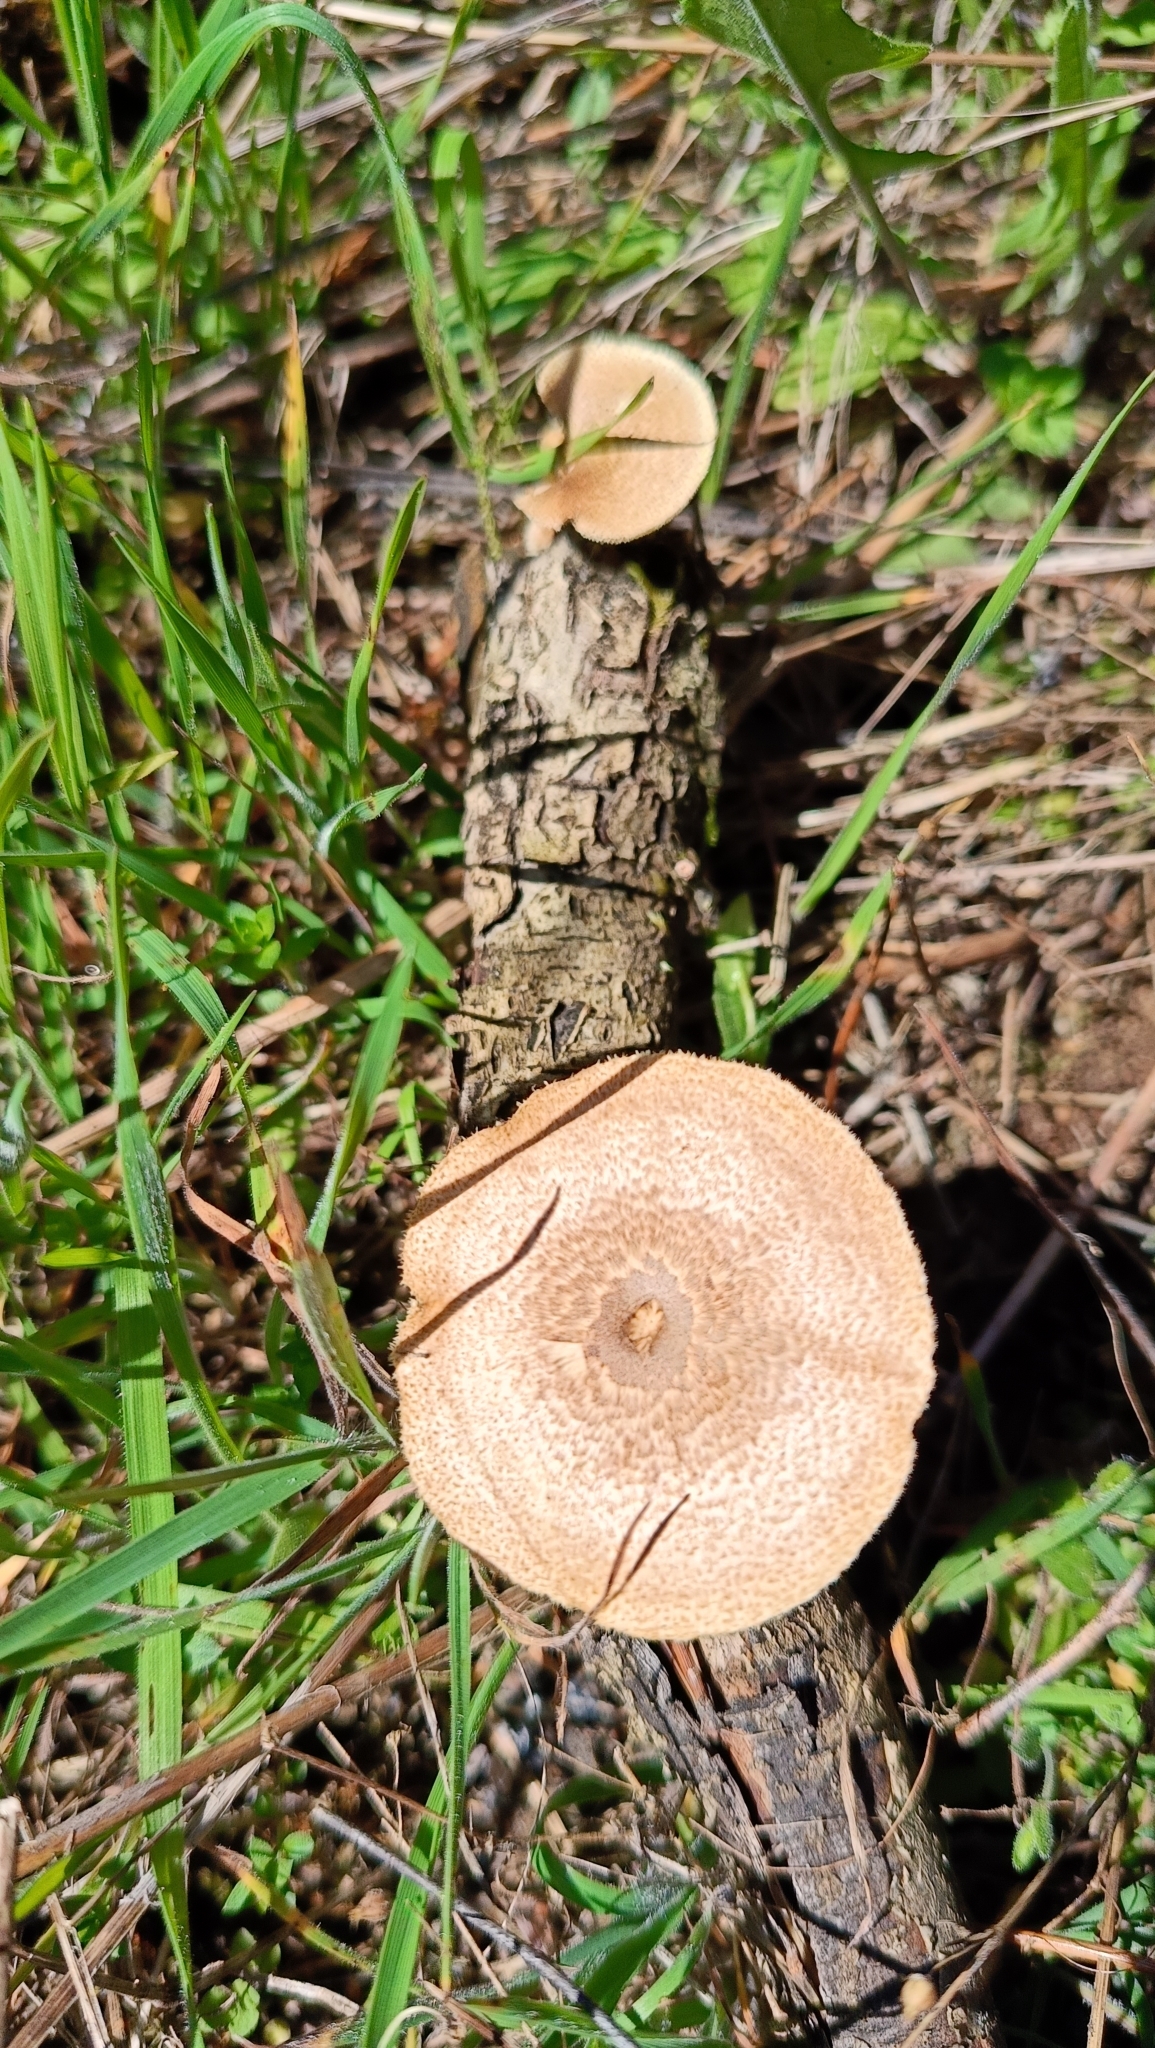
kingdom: Fungi
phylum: Basidiomycota
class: Agaricomycetes
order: Polyporales
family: Polyporaceae
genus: Lentinus
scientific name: Lentinus arcularius
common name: Spring polypore
